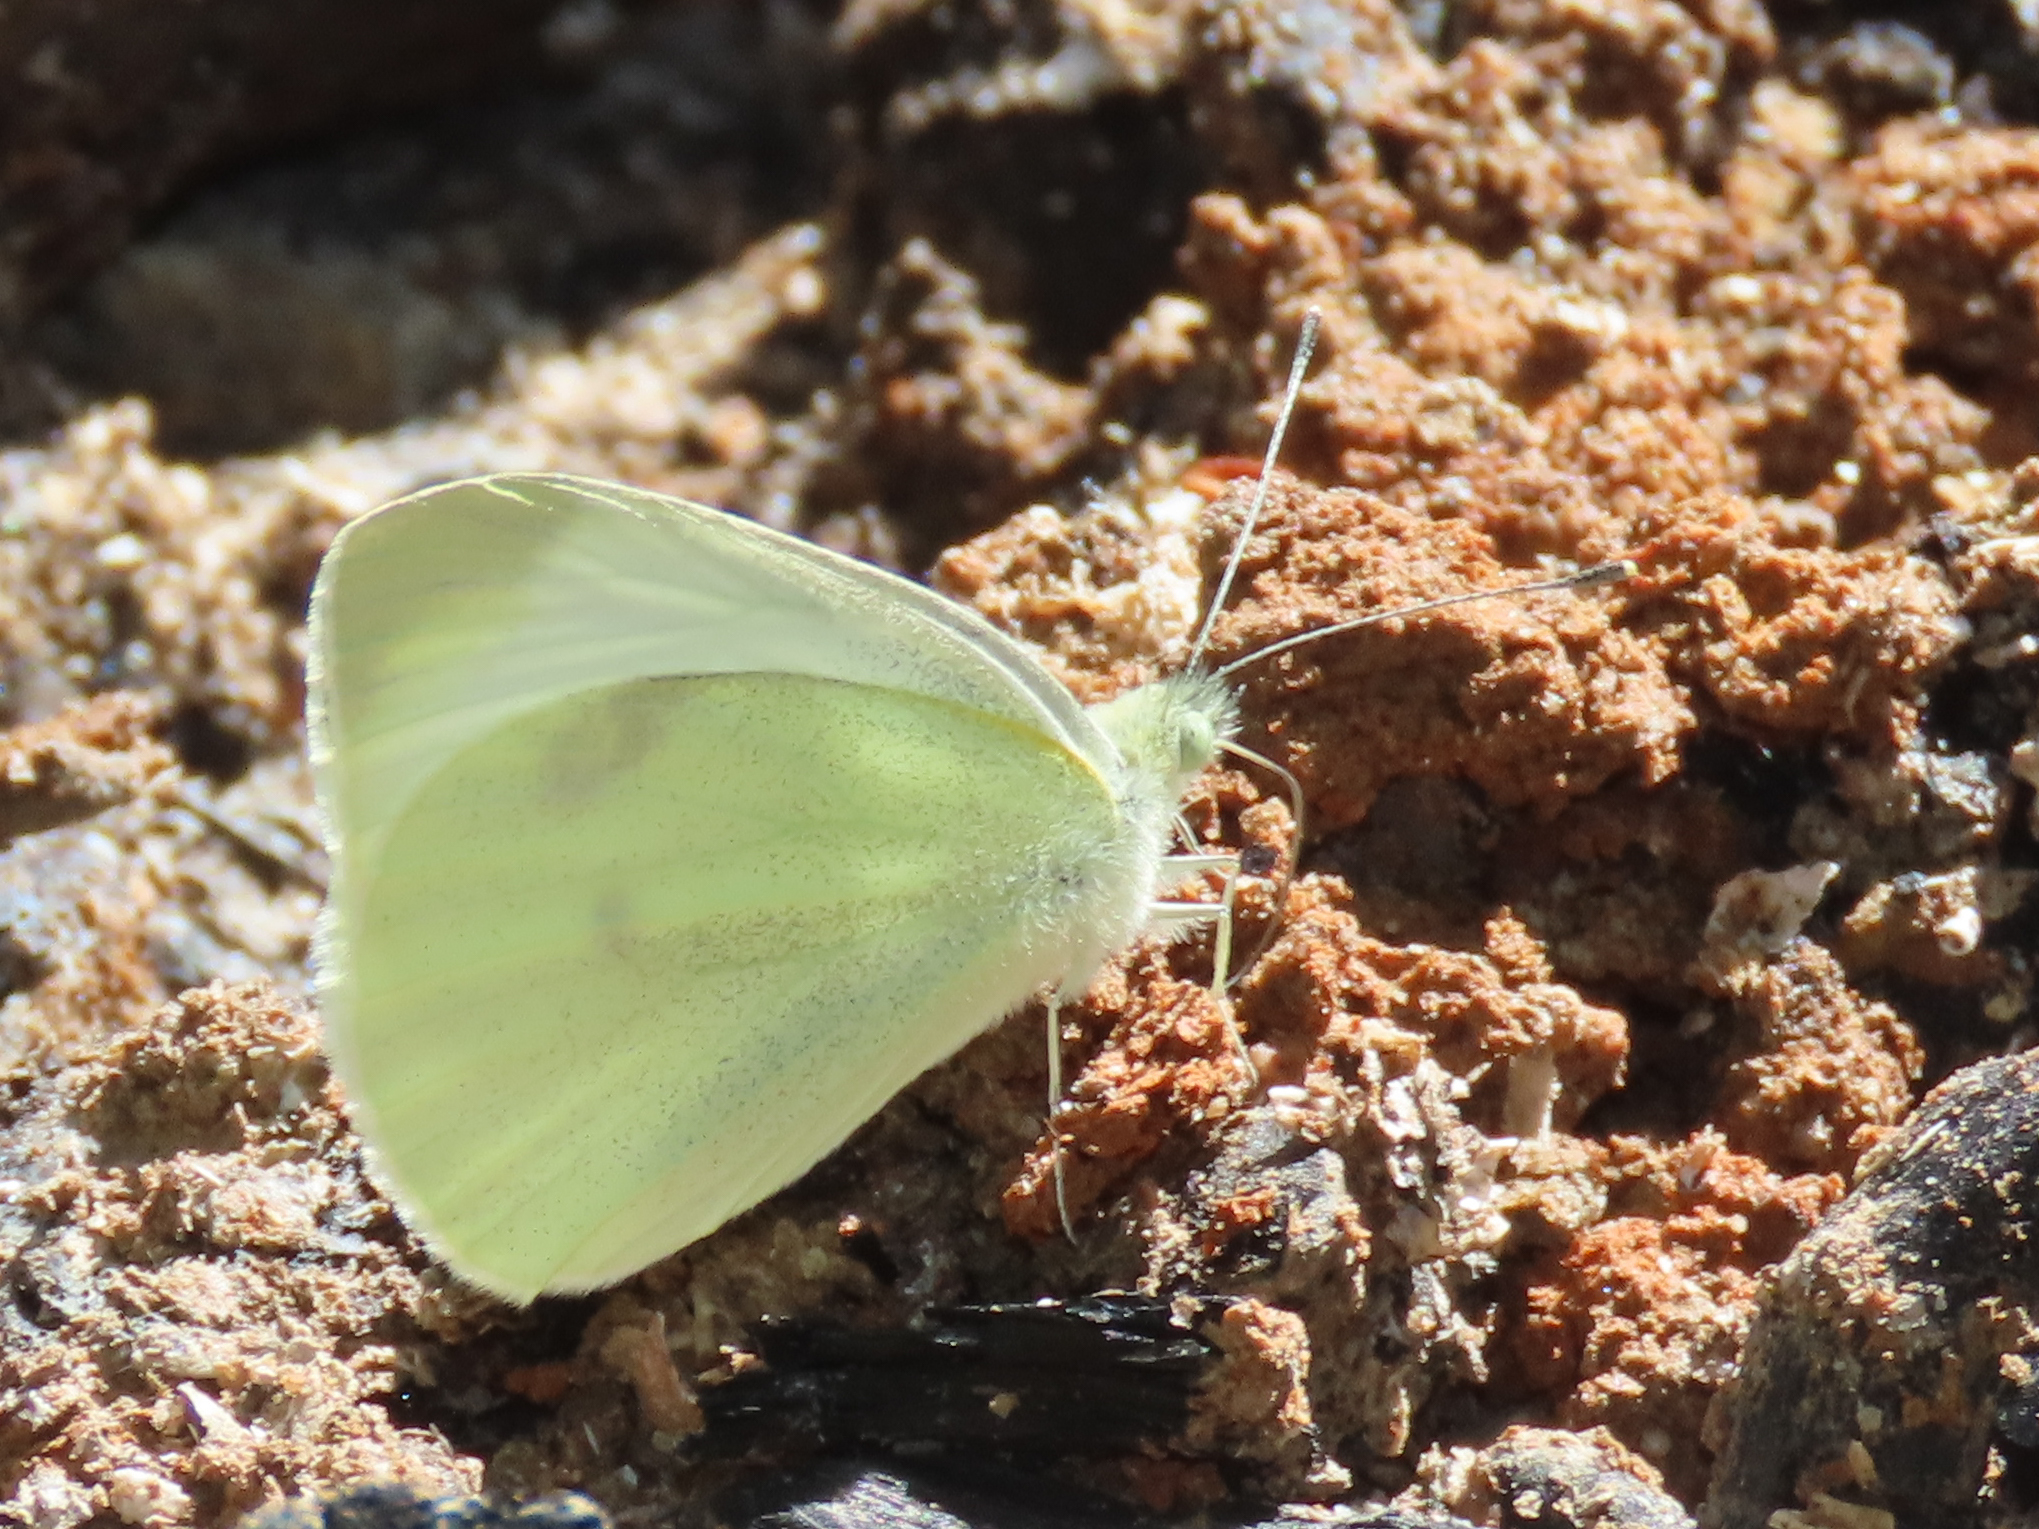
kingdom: Animalia
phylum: Arthropoda
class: Insecta
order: Lepidoptera
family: Pieridae
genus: Pieris
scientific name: Pieris rapae
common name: Small white
